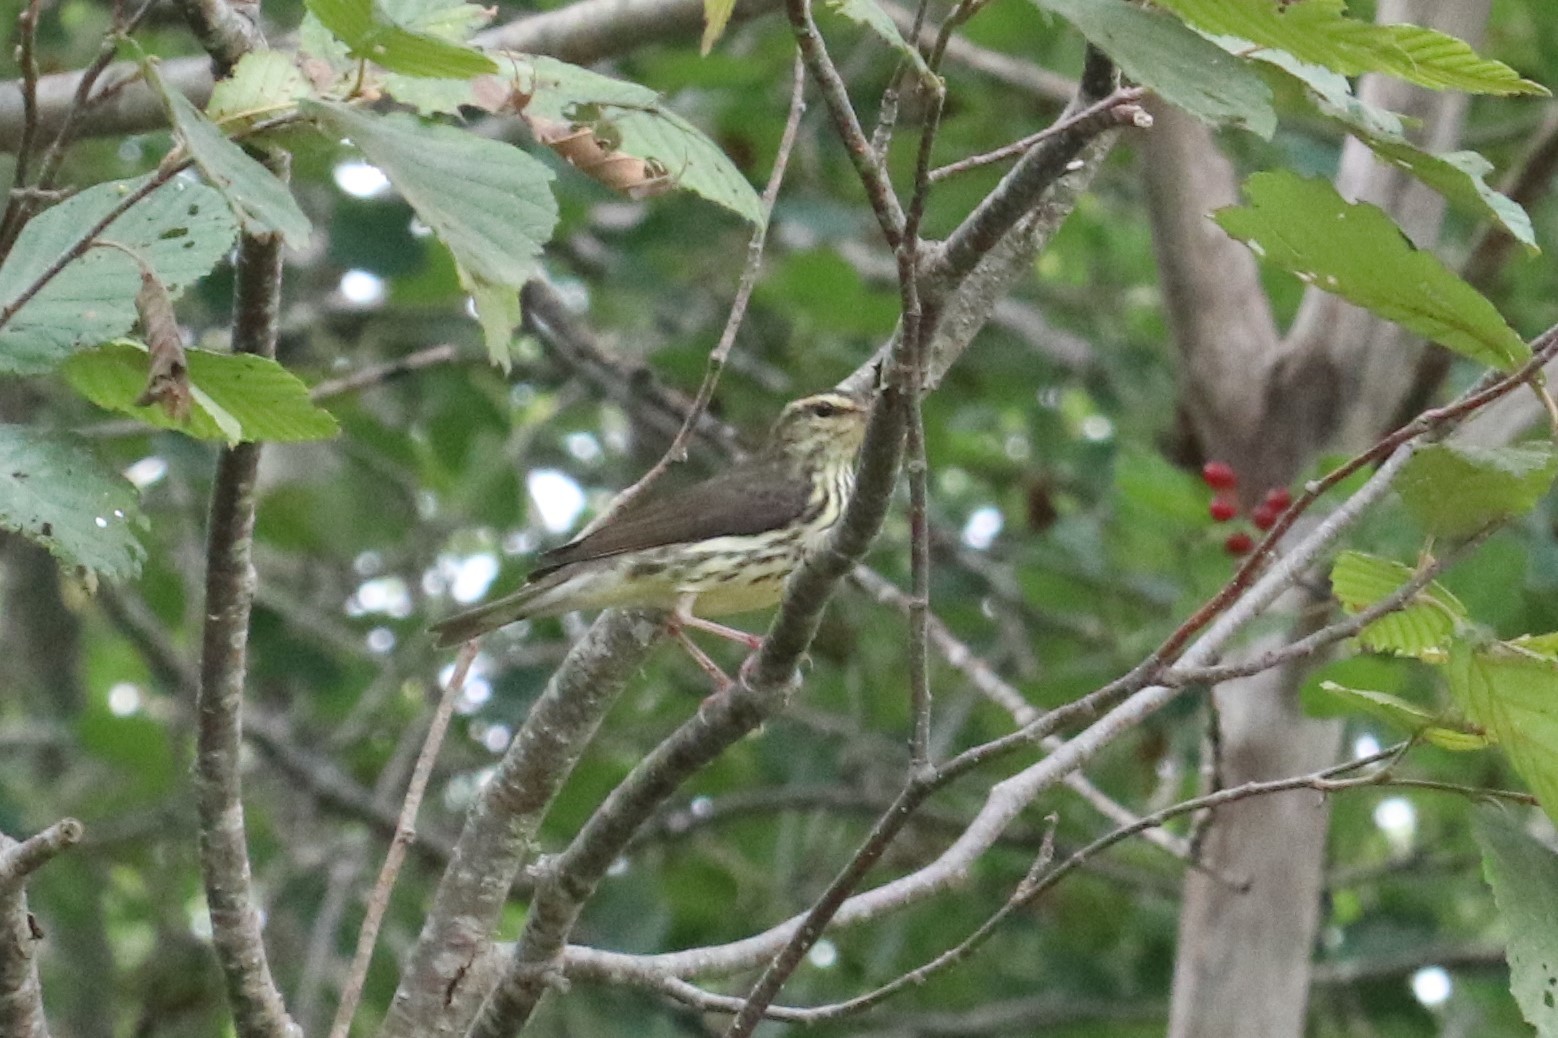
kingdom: Animalia
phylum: Chordata
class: Aves
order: Passeriformes
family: Parulidae
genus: Parkesia
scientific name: Parkesia noveboracensis
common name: Northern waterthrush
